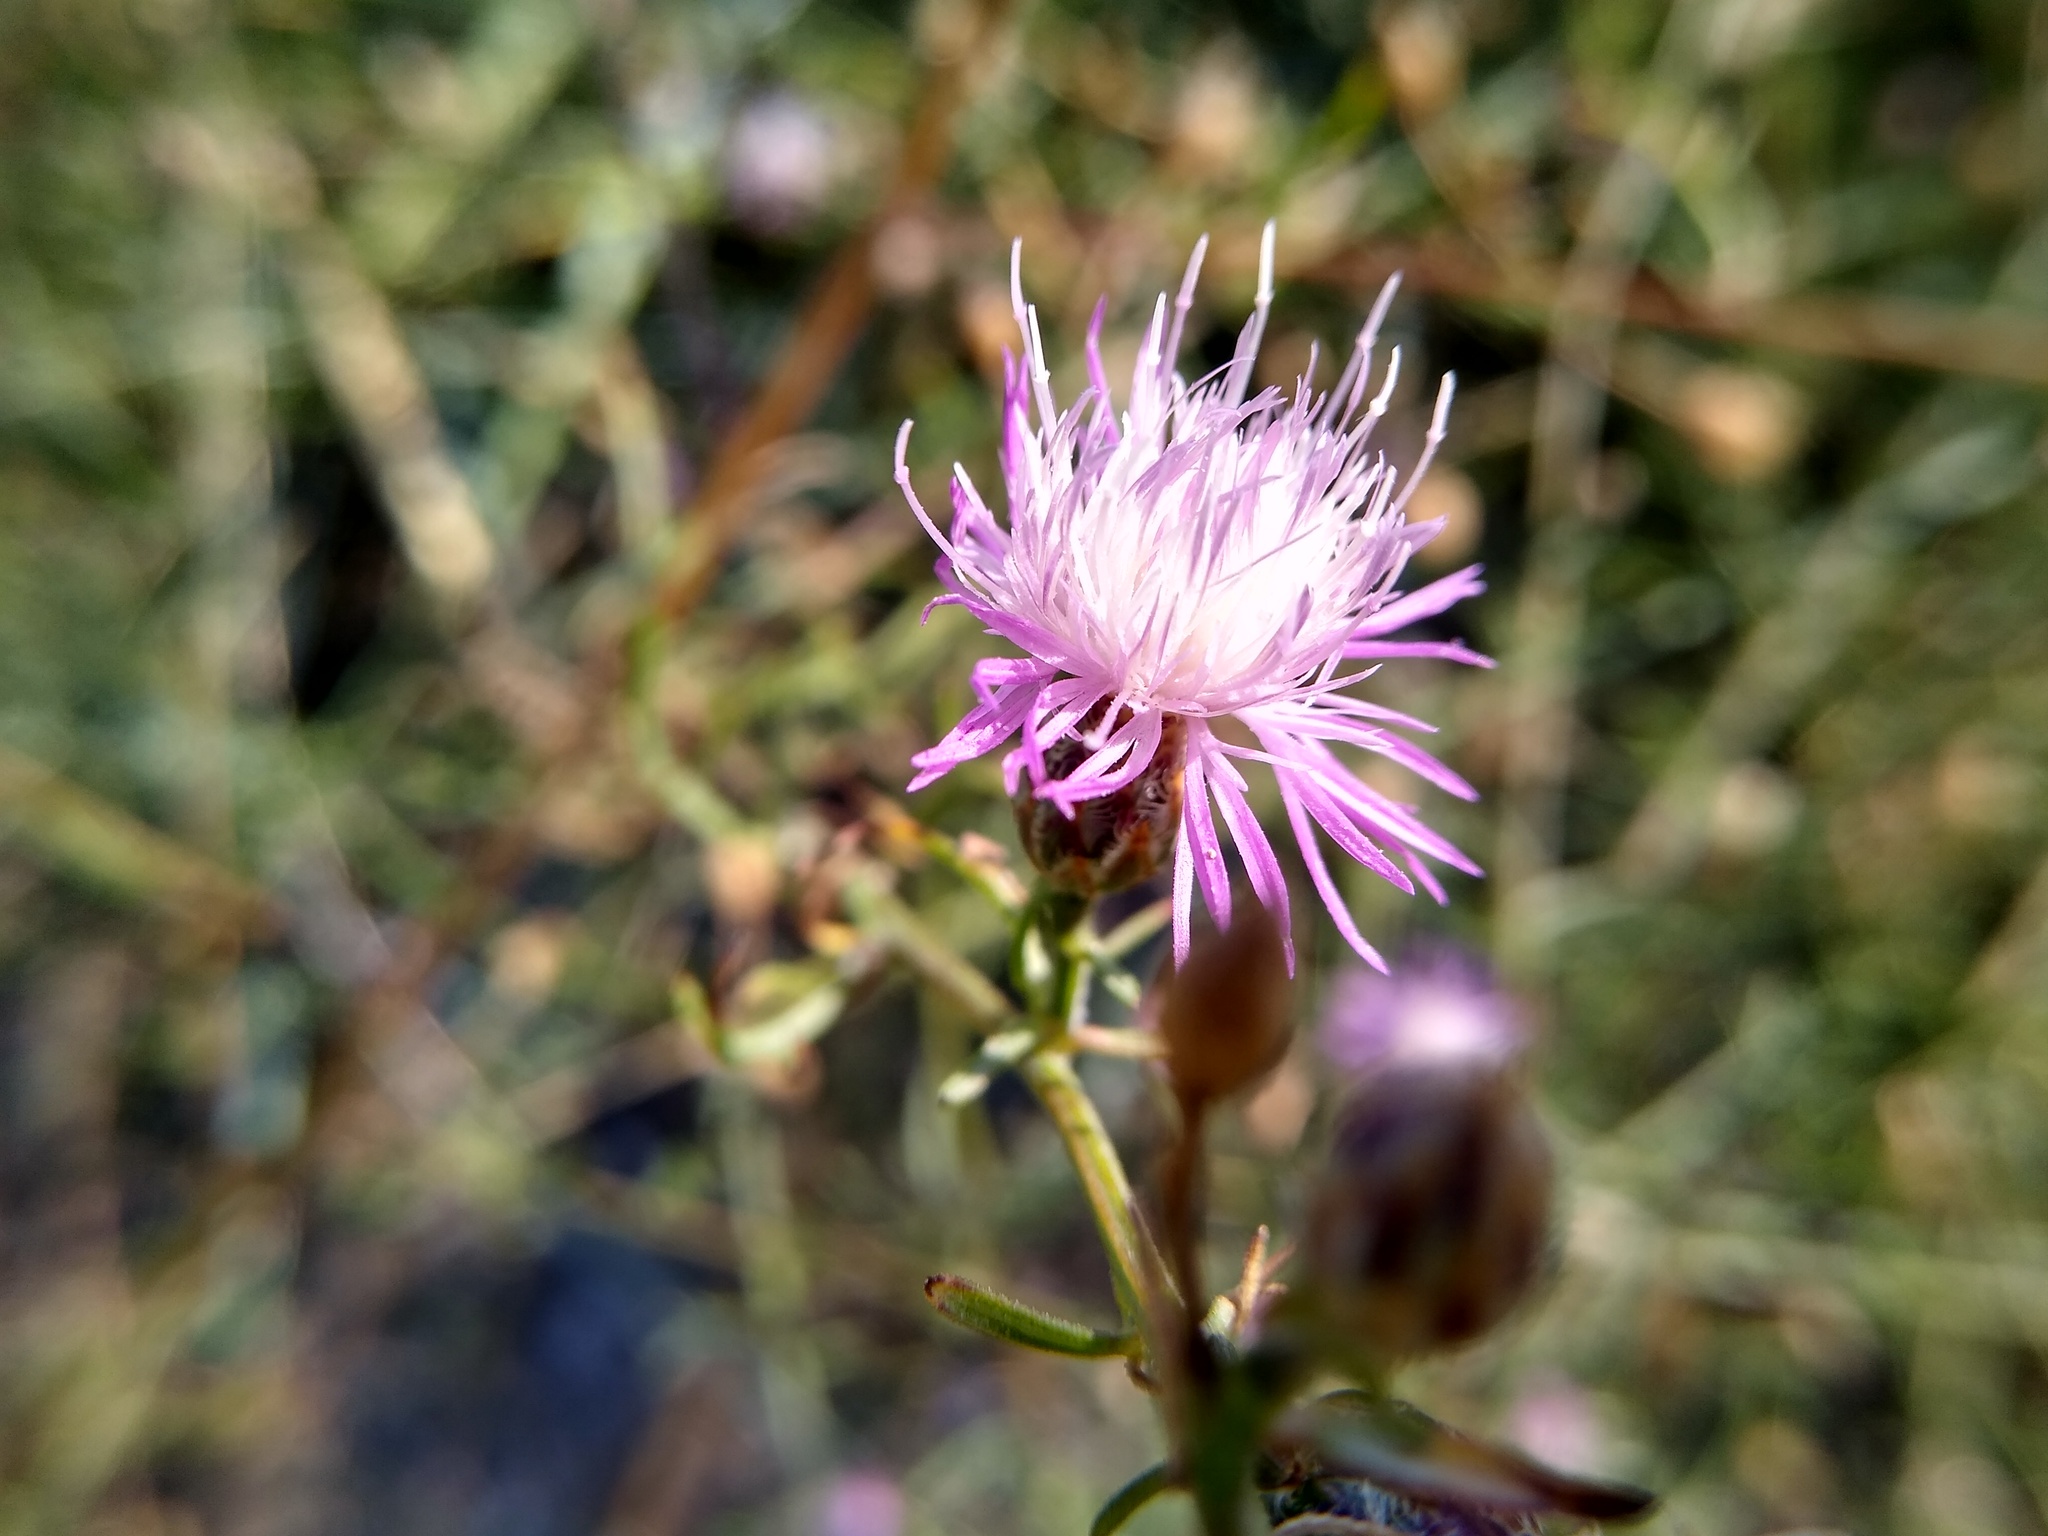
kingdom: Plantae
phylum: Tracheophyta
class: Magnoliopsida
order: Asterales
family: Asteraceae
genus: Centaurea
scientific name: Centaurea odessana
